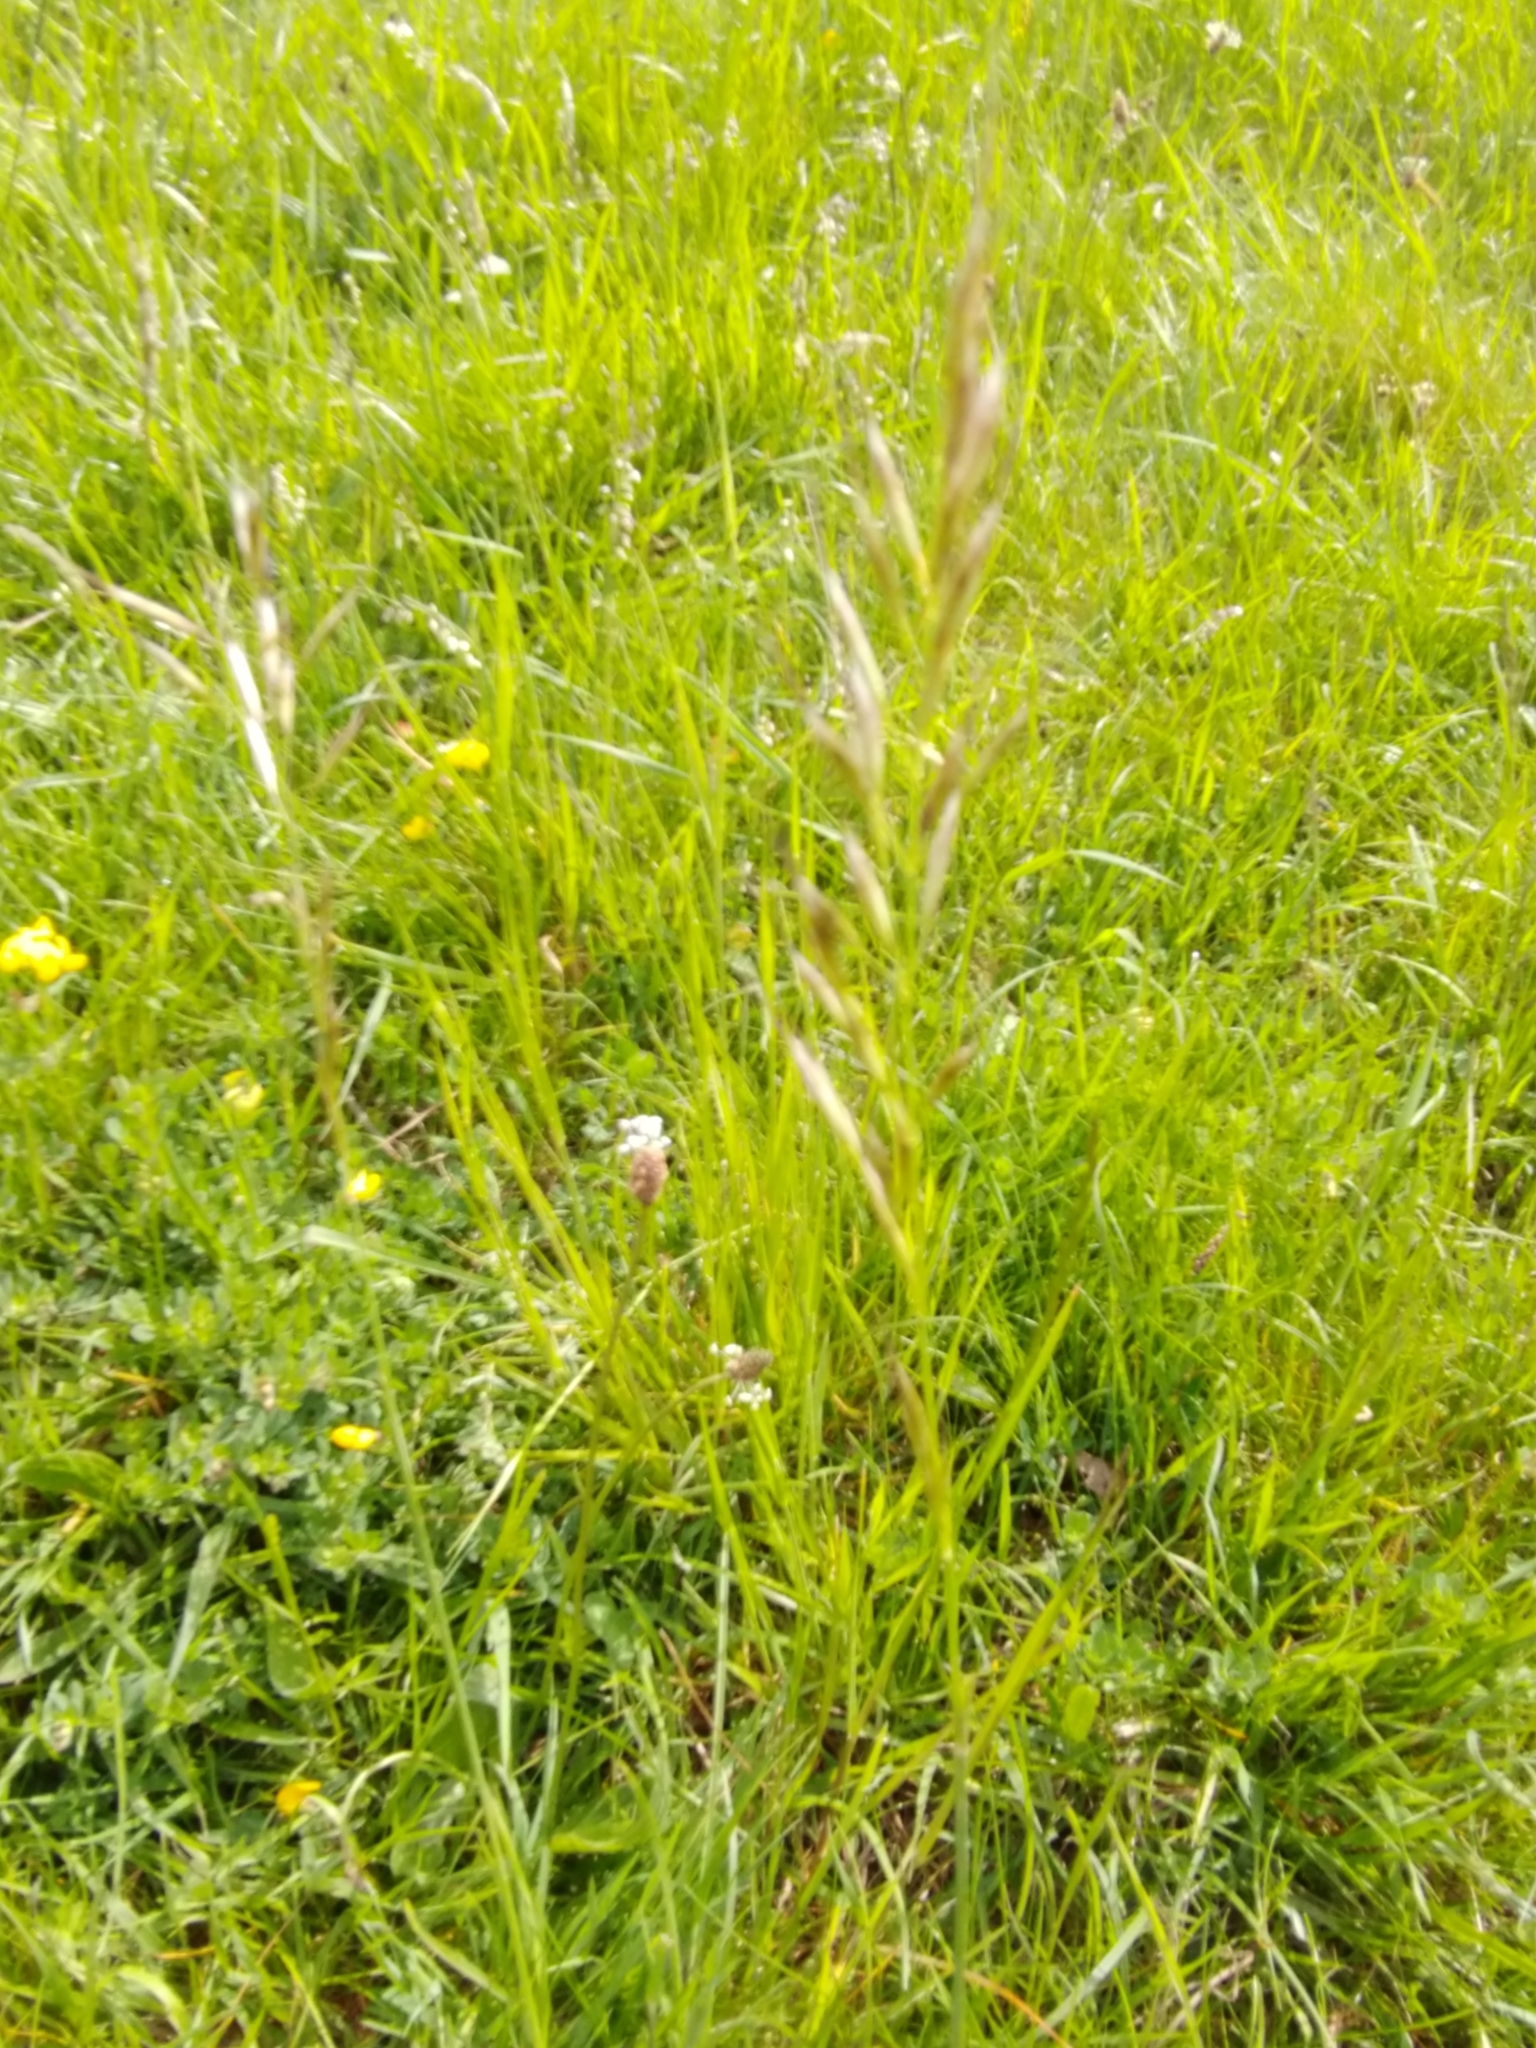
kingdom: Plantae
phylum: Tracheophyta
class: Liliopsida
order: Poales
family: Poaceae
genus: Avenula
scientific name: Avenula pubescens
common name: Downy alpine oatgrass
